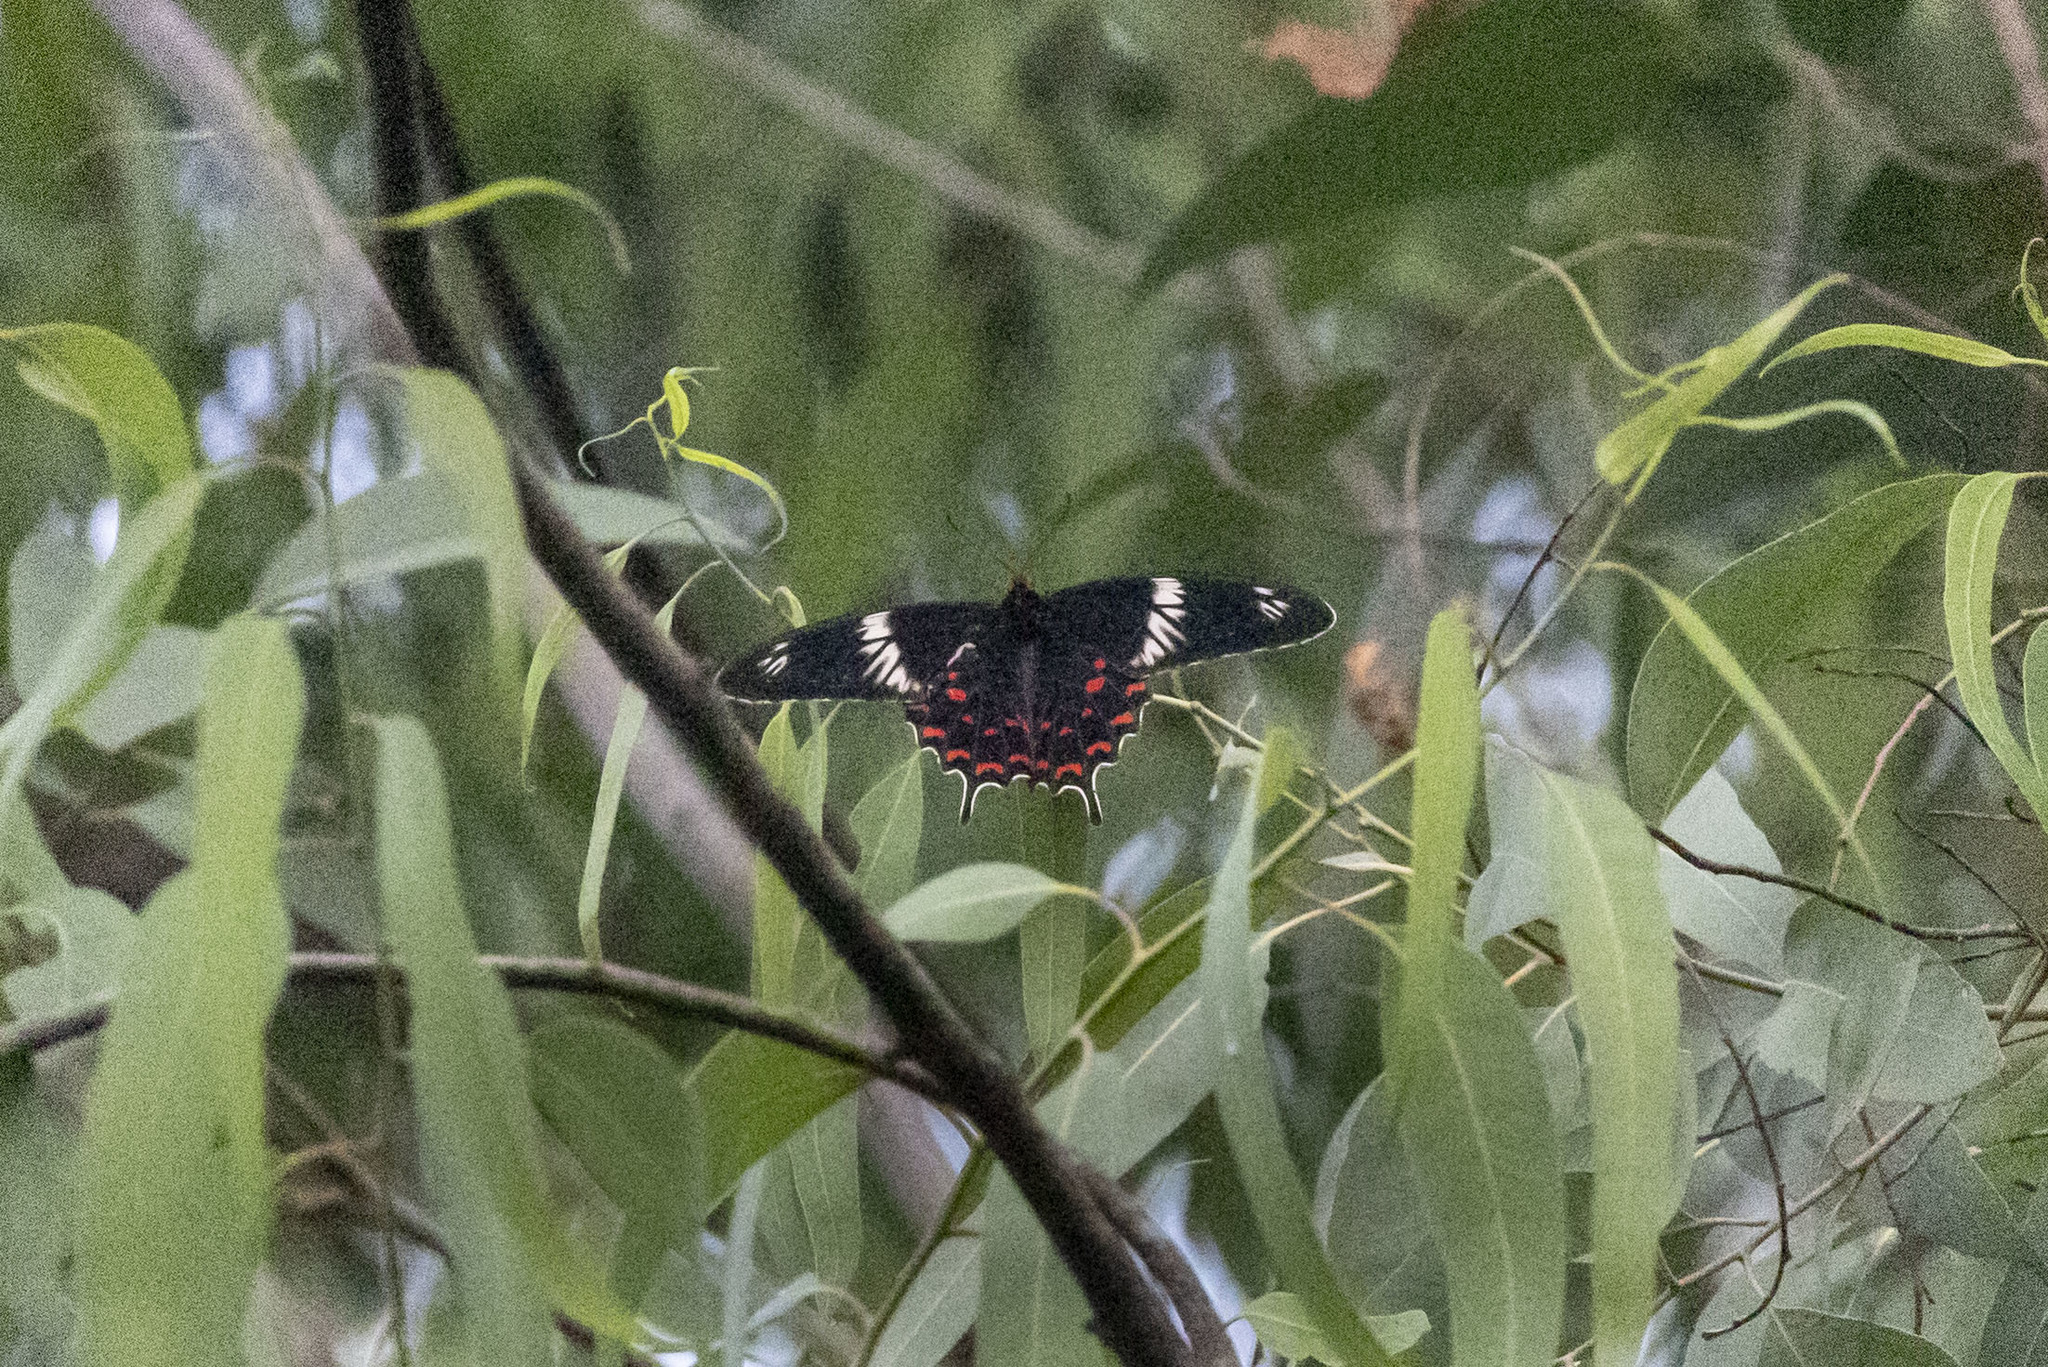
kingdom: Animalia
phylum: Arthropoda
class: Insecta
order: Lepidoptera
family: Papilionidae
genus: Pachliopta
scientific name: Pachliopta hector
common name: Crimson rose
